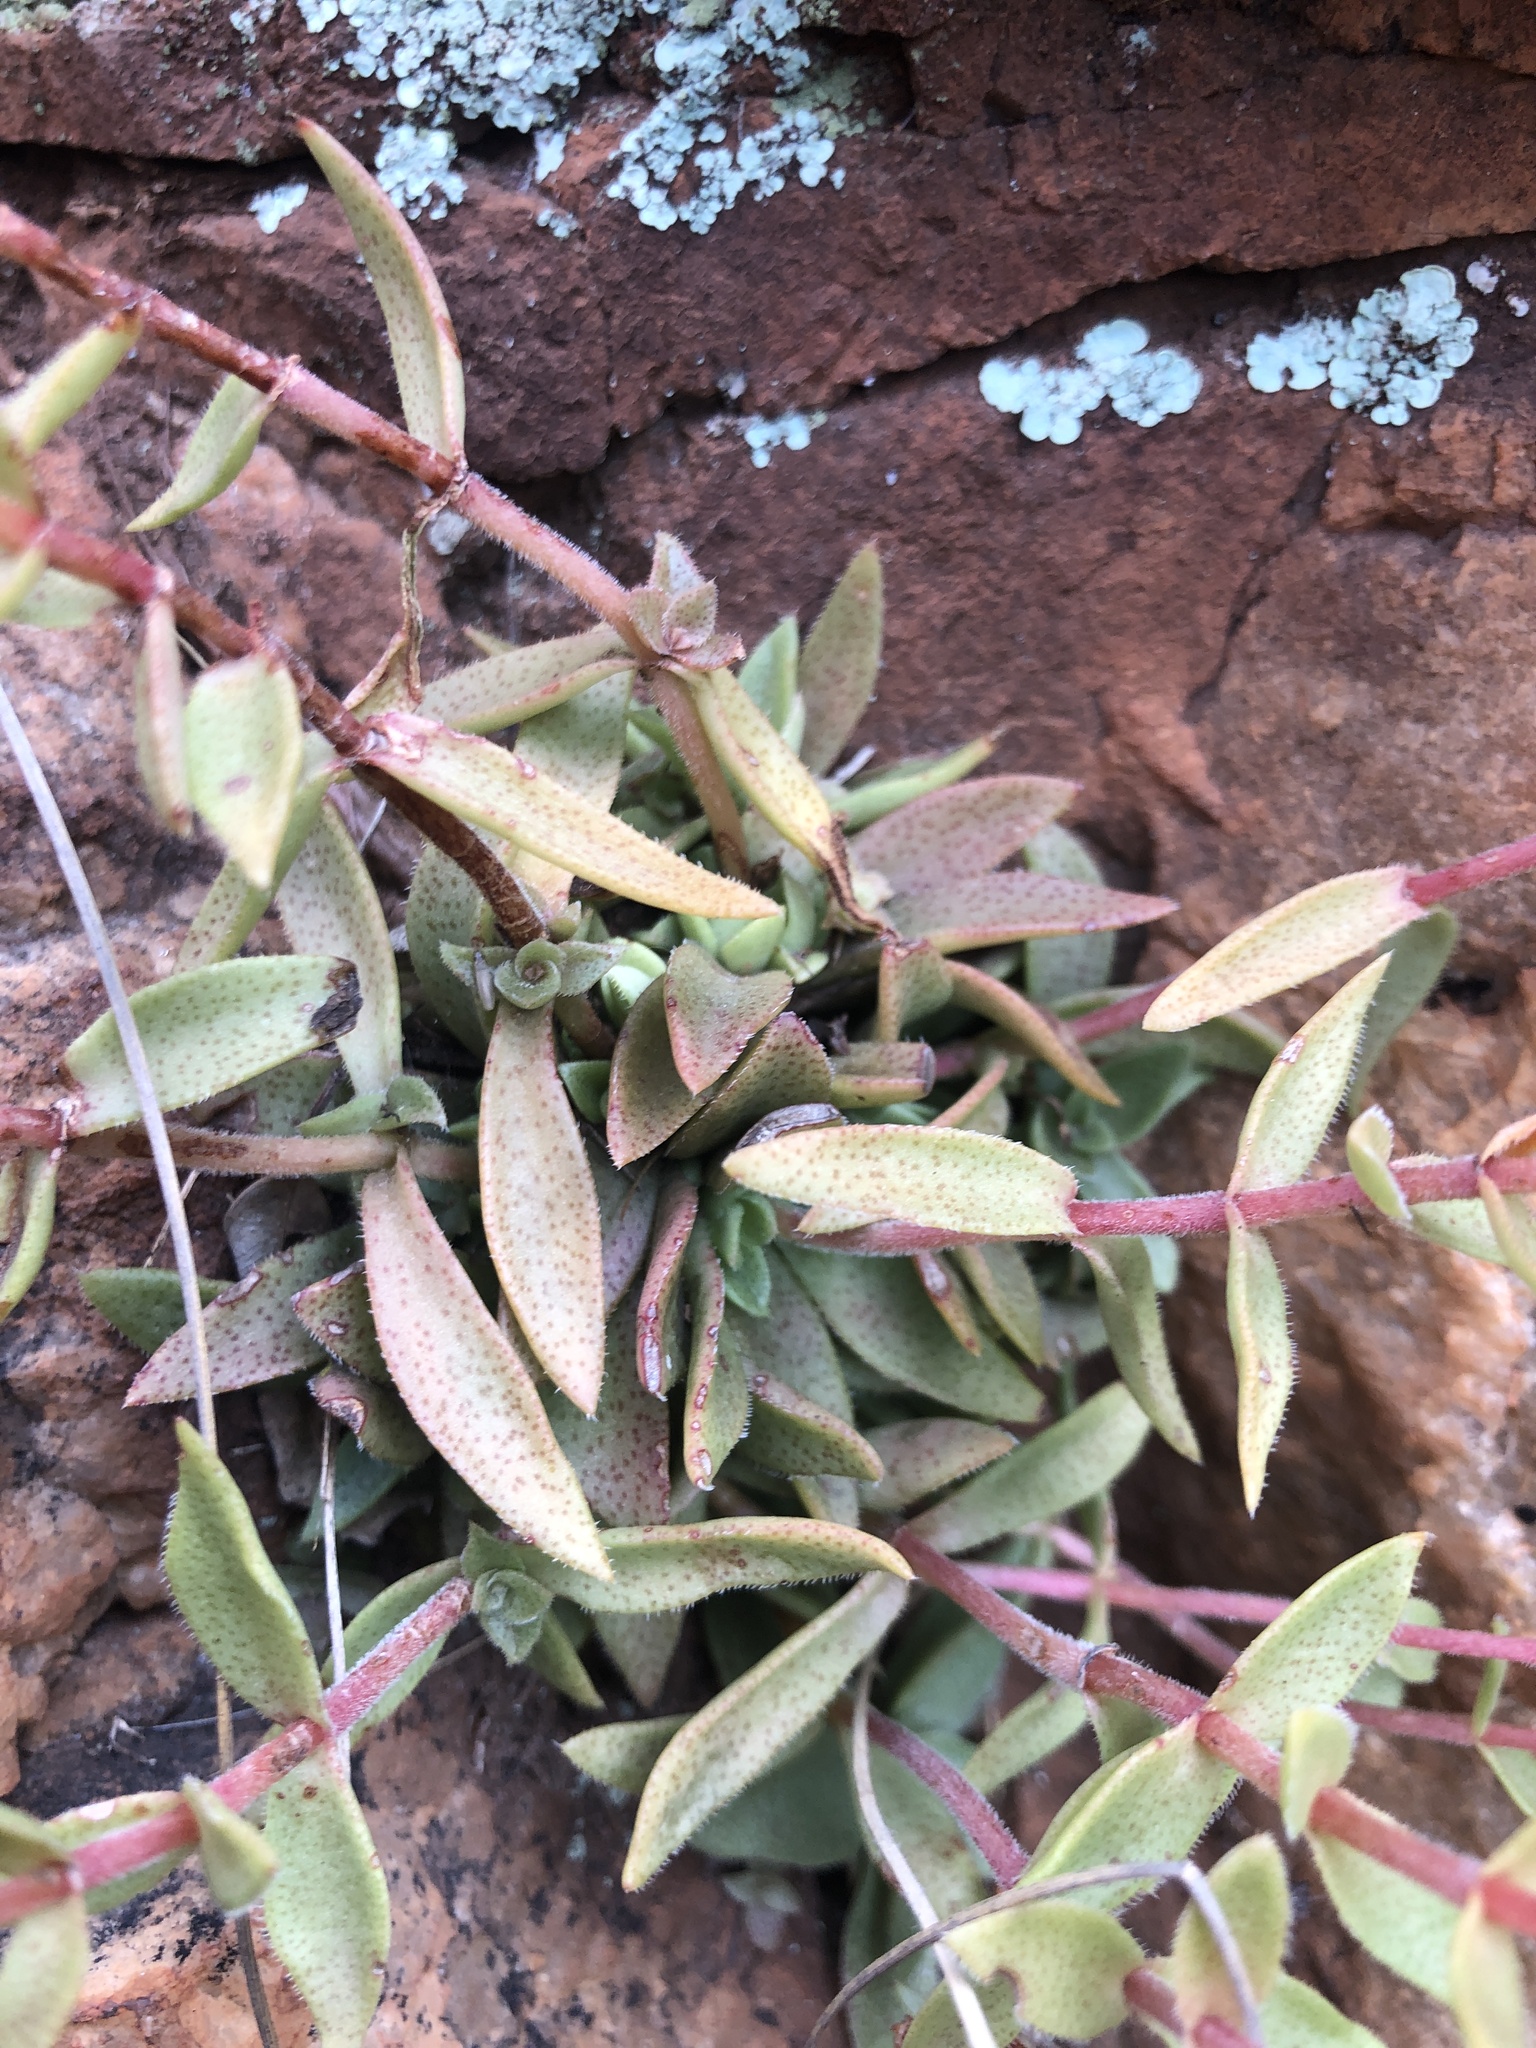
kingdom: Plantae
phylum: Tracheophyta
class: Magnoliopsida
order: Saxifragales
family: Crassulaceae
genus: Crassula
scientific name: Crassula setulosa
